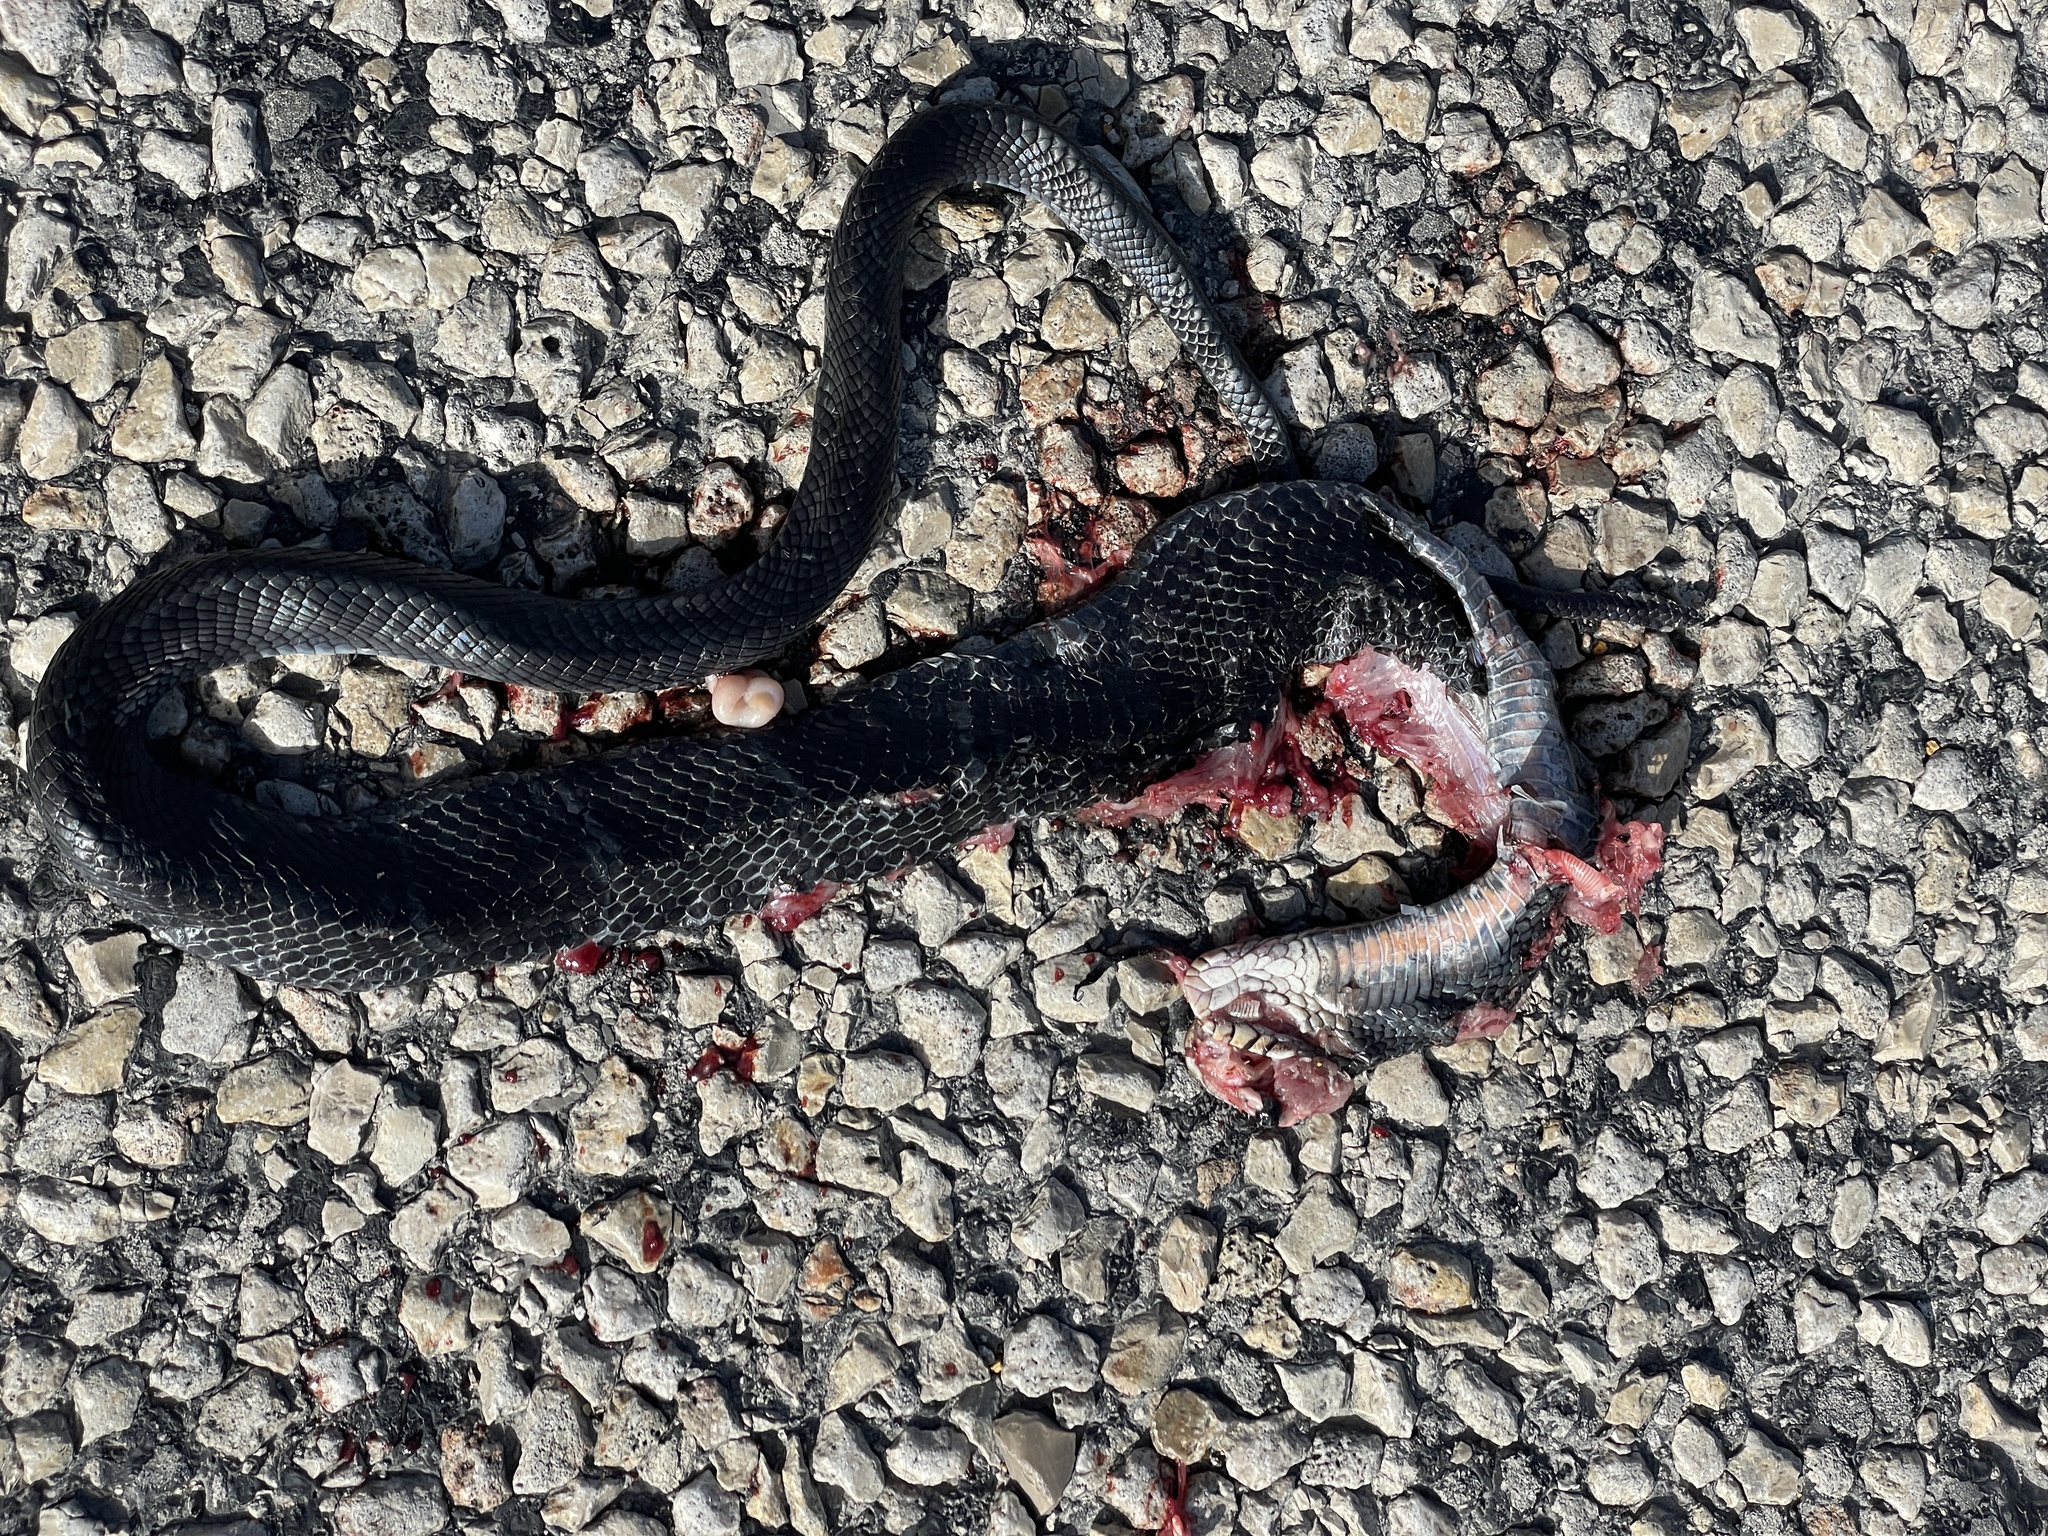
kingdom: Animalia
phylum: Chordata
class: Squamata
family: Colubridae
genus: Drymarchon
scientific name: Drymarchon melanurus
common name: Central american indigo snake
